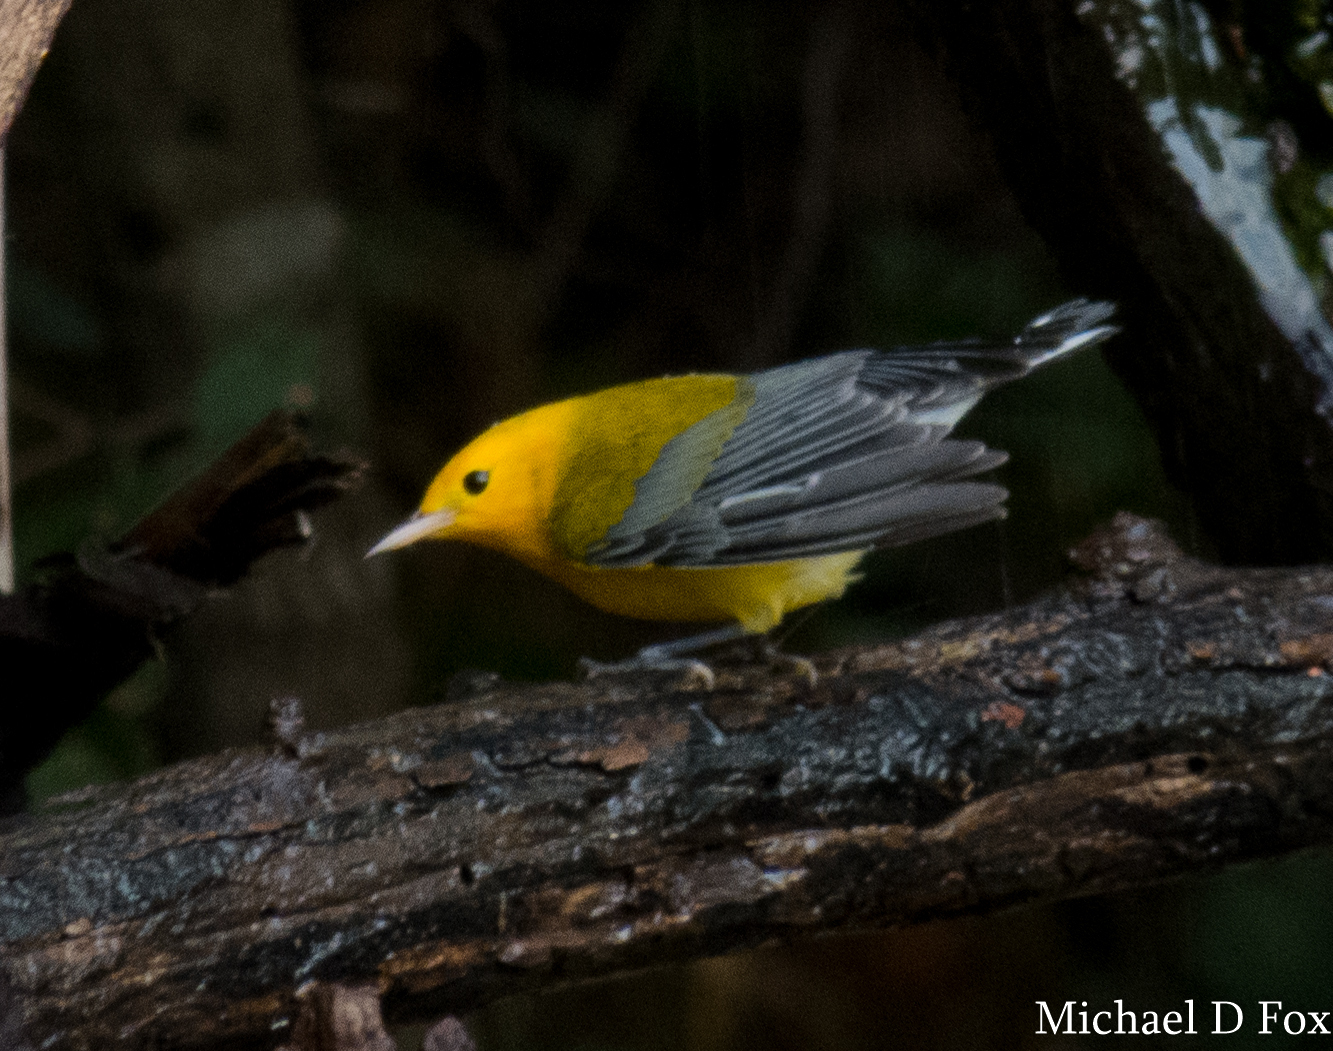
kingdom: Animalia
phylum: Chordata
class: Aves
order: Passeriformes
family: Parulidae
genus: Protonotaria
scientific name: Protonotaria citrea
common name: Prothonotary warbler
